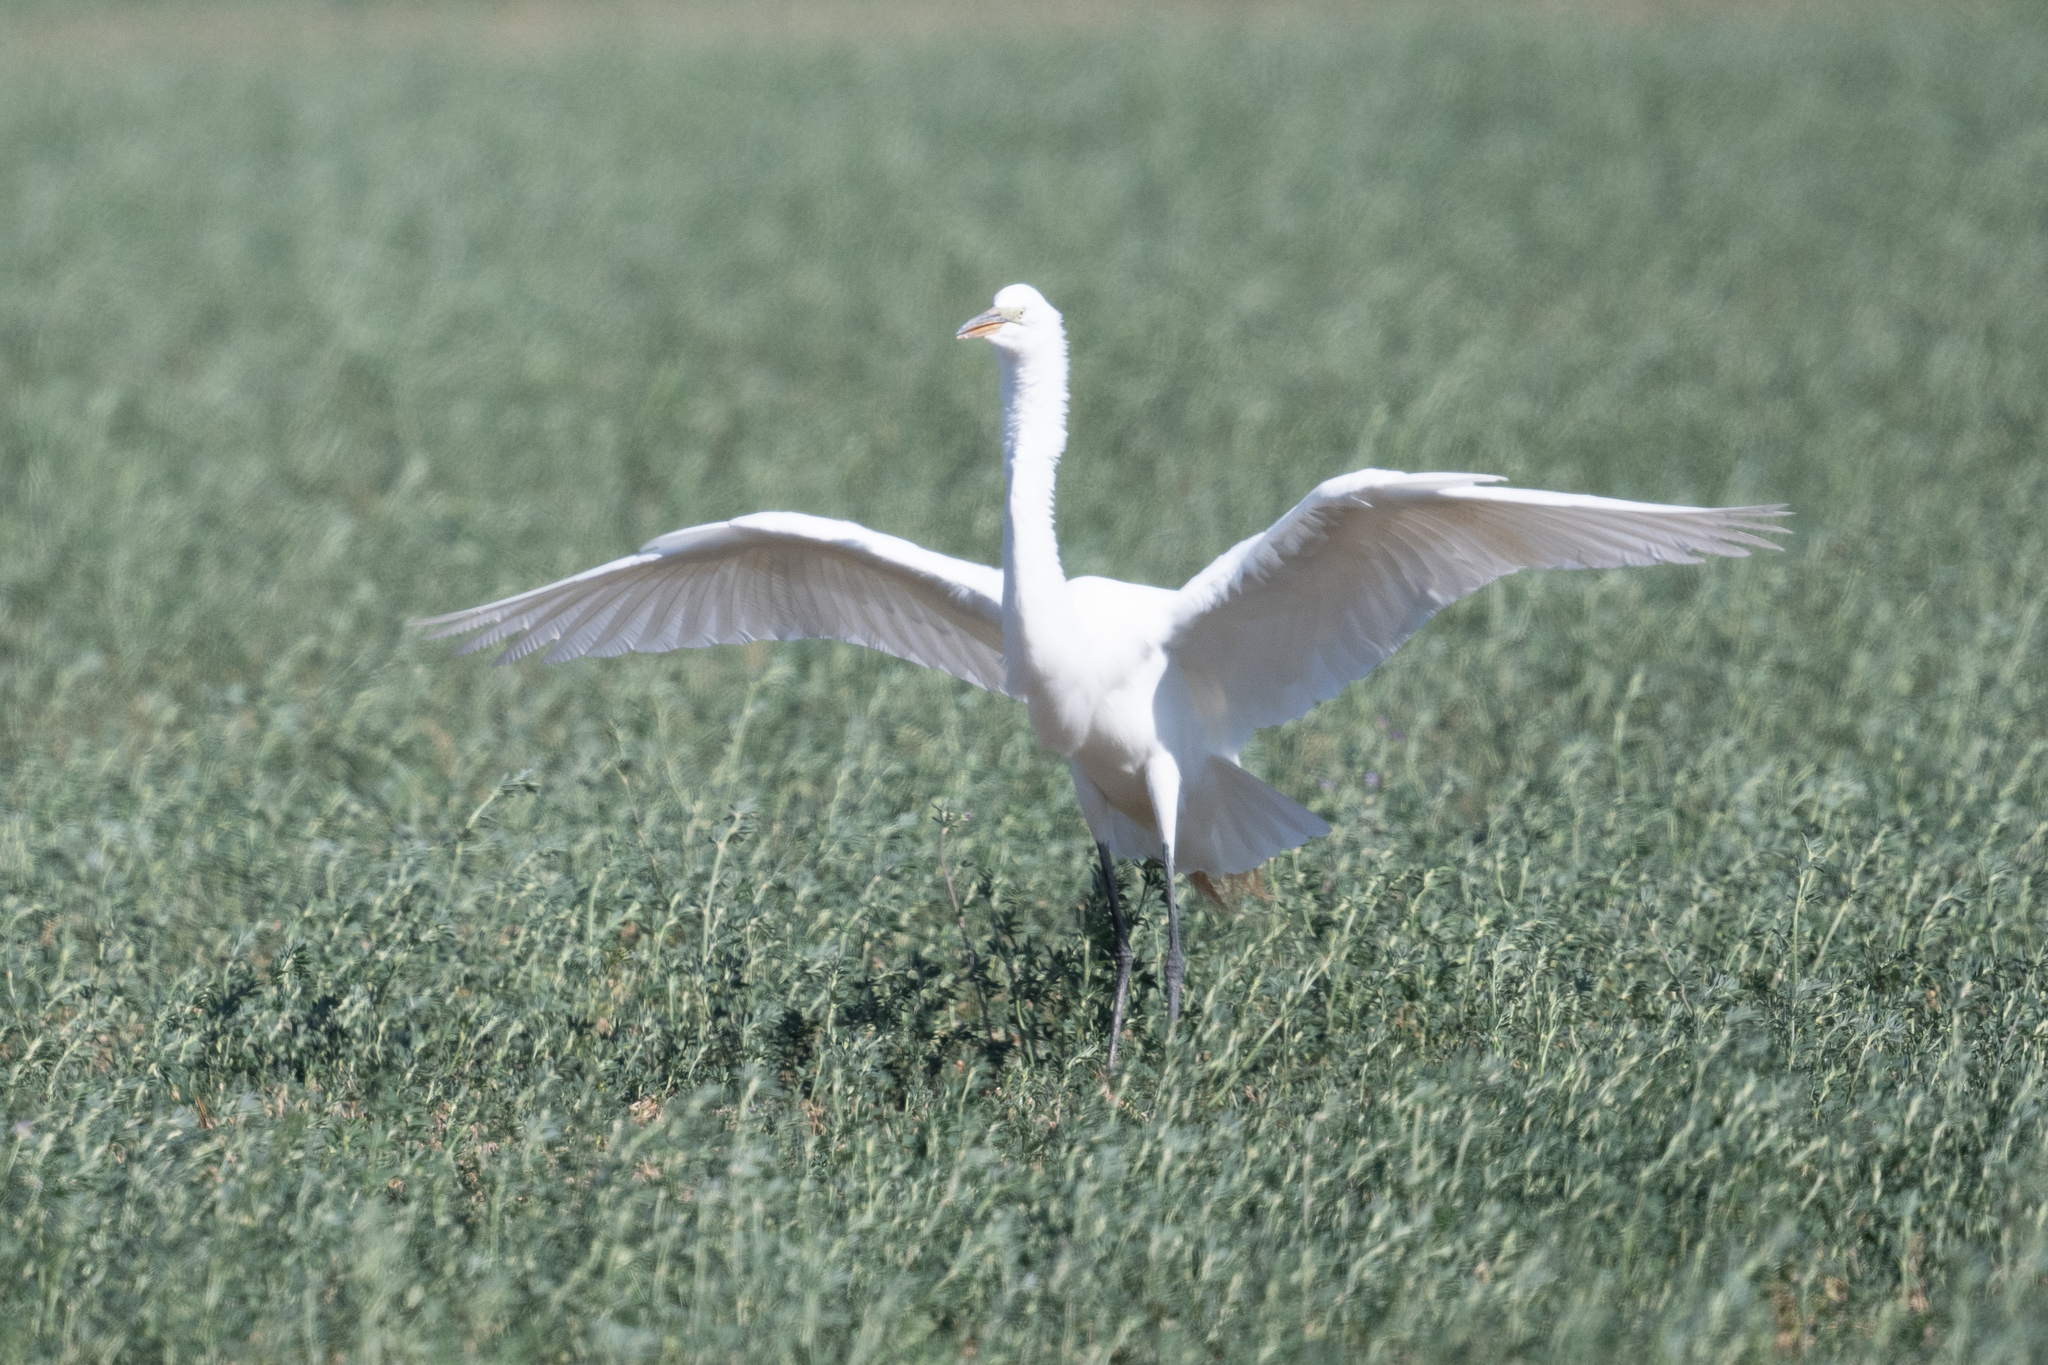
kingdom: Animalia
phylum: Chordata
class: Aves
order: Pelecaniformes
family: Ardeidae
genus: Ardea
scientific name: Ardea alba
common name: Great egret
